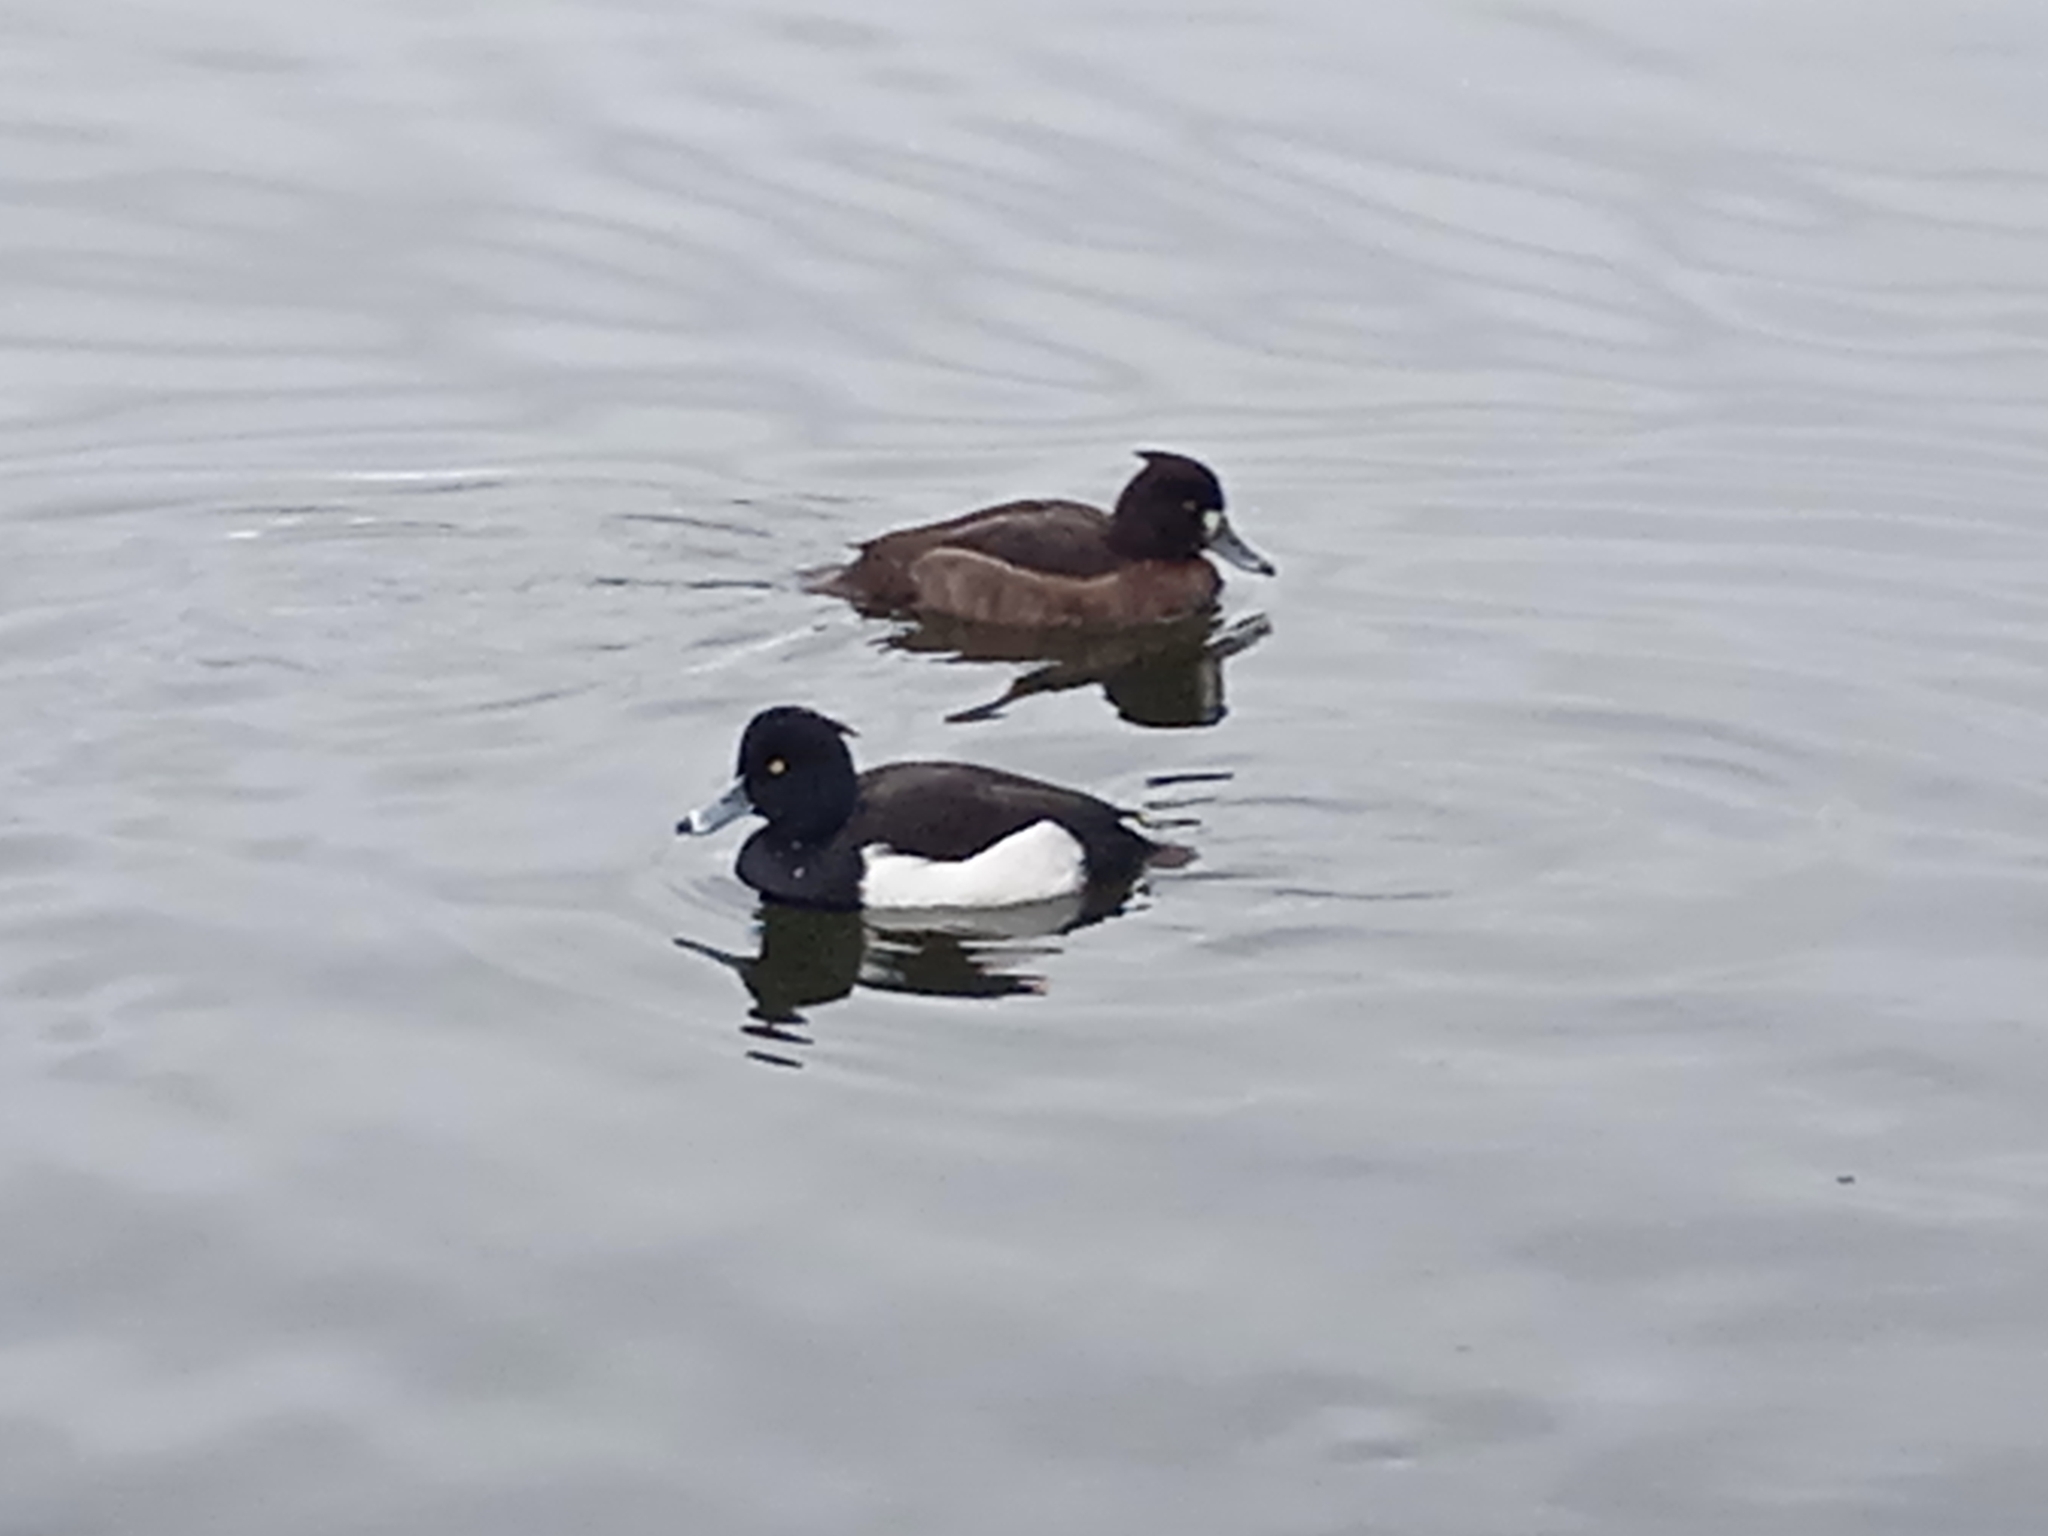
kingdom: Animalia
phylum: Chordata
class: Aves
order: Anseriformes
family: Anatidae
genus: Aythya
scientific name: Aythya fuligula
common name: Tufted duck
